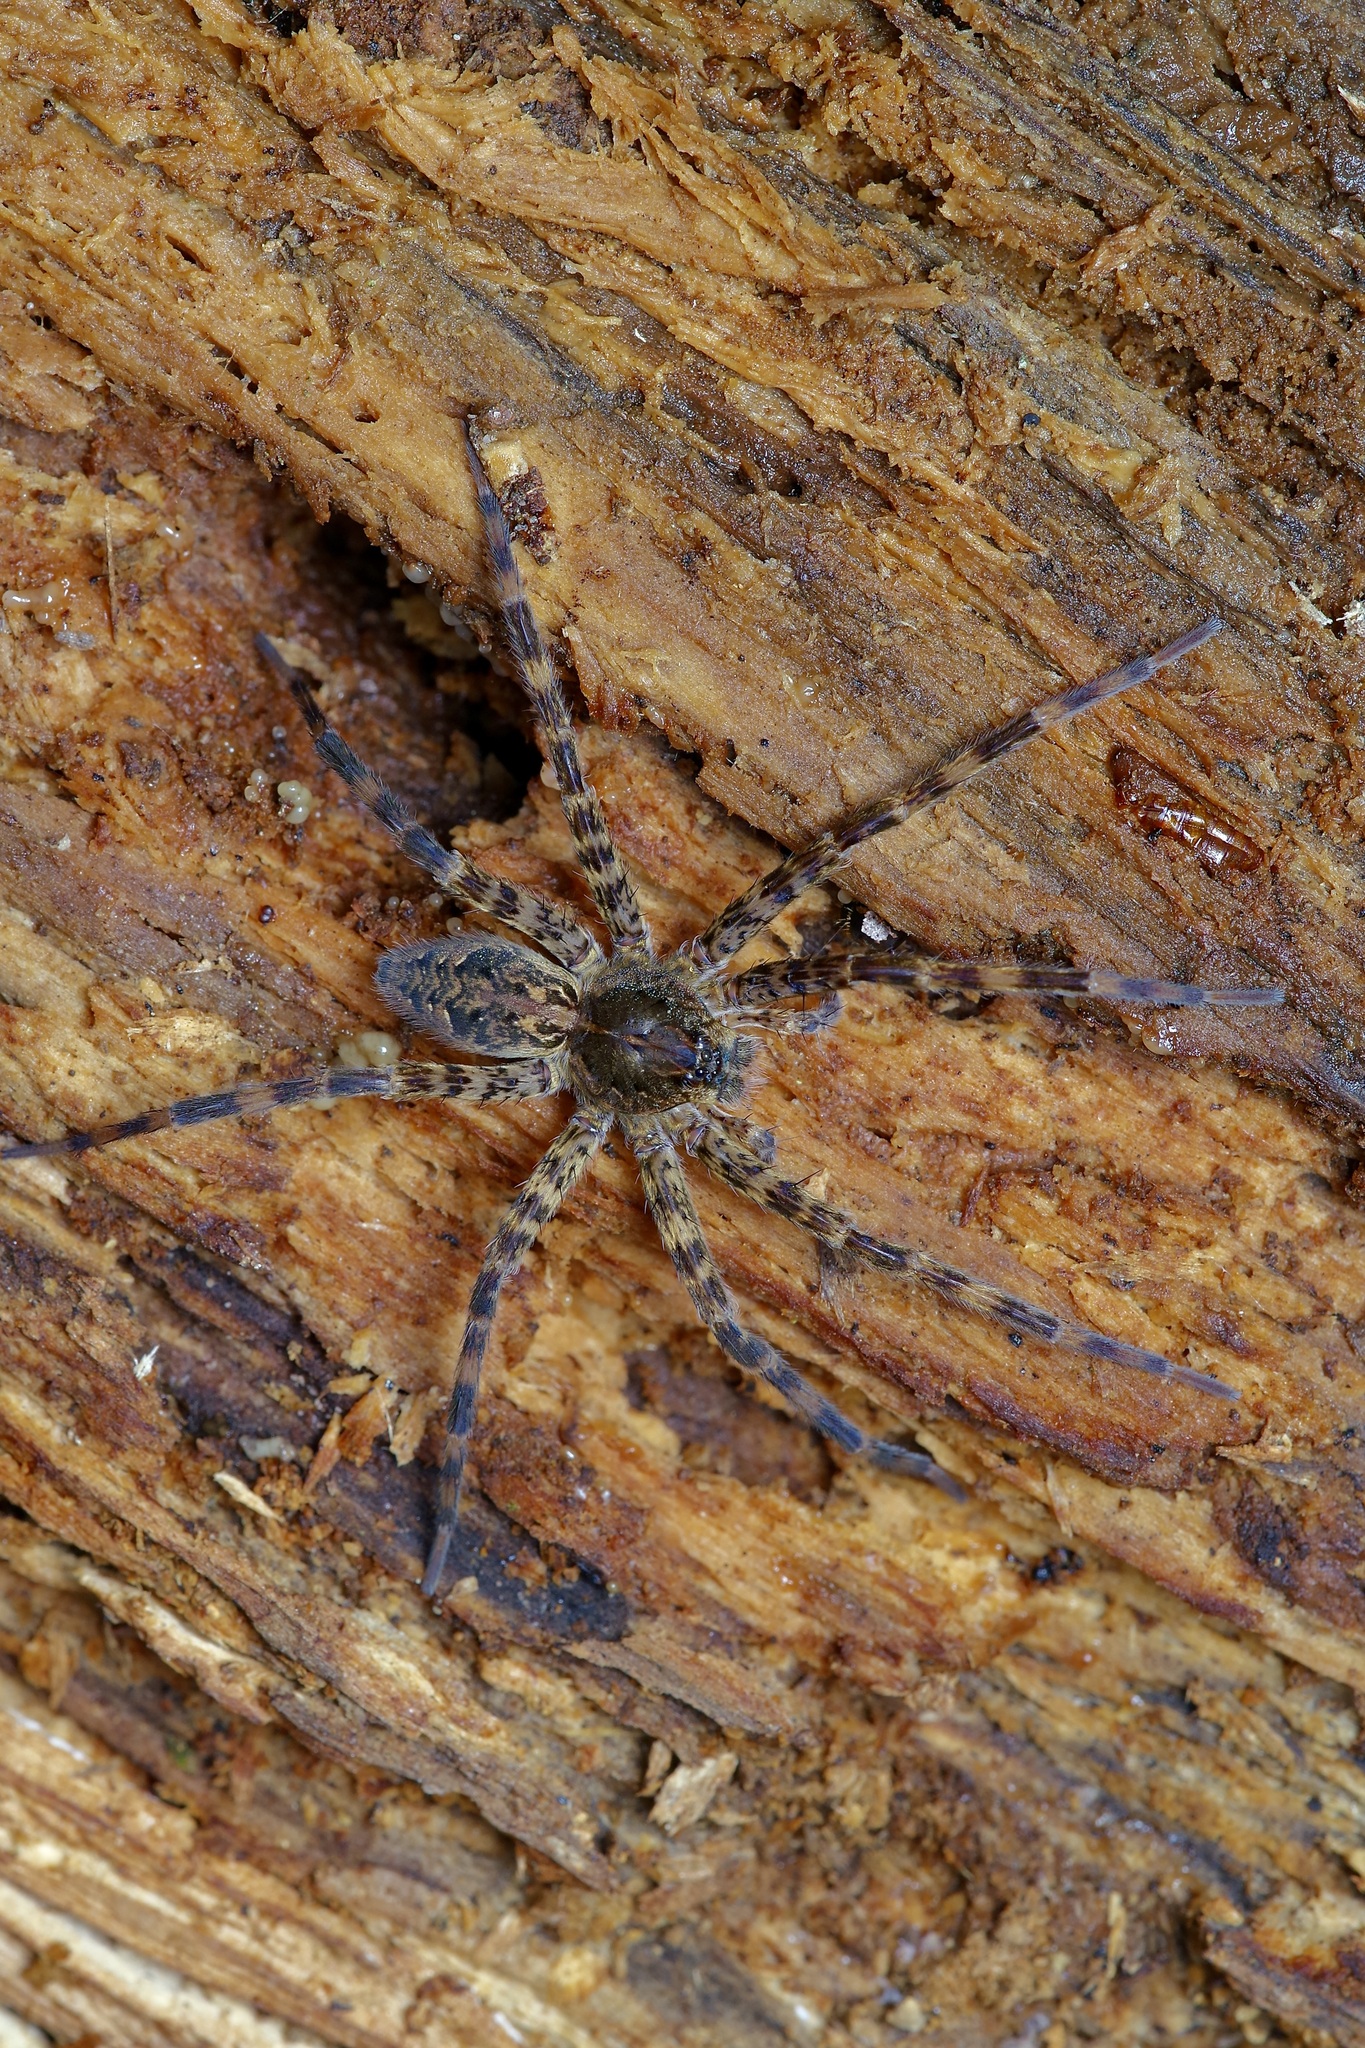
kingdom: Animalia
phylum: Arthropoda
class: Arachnida
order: Araneae
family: Pisauridae
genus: Dolomedes
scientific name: Dolomedes tenebrosus
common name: Dark fishing spider
